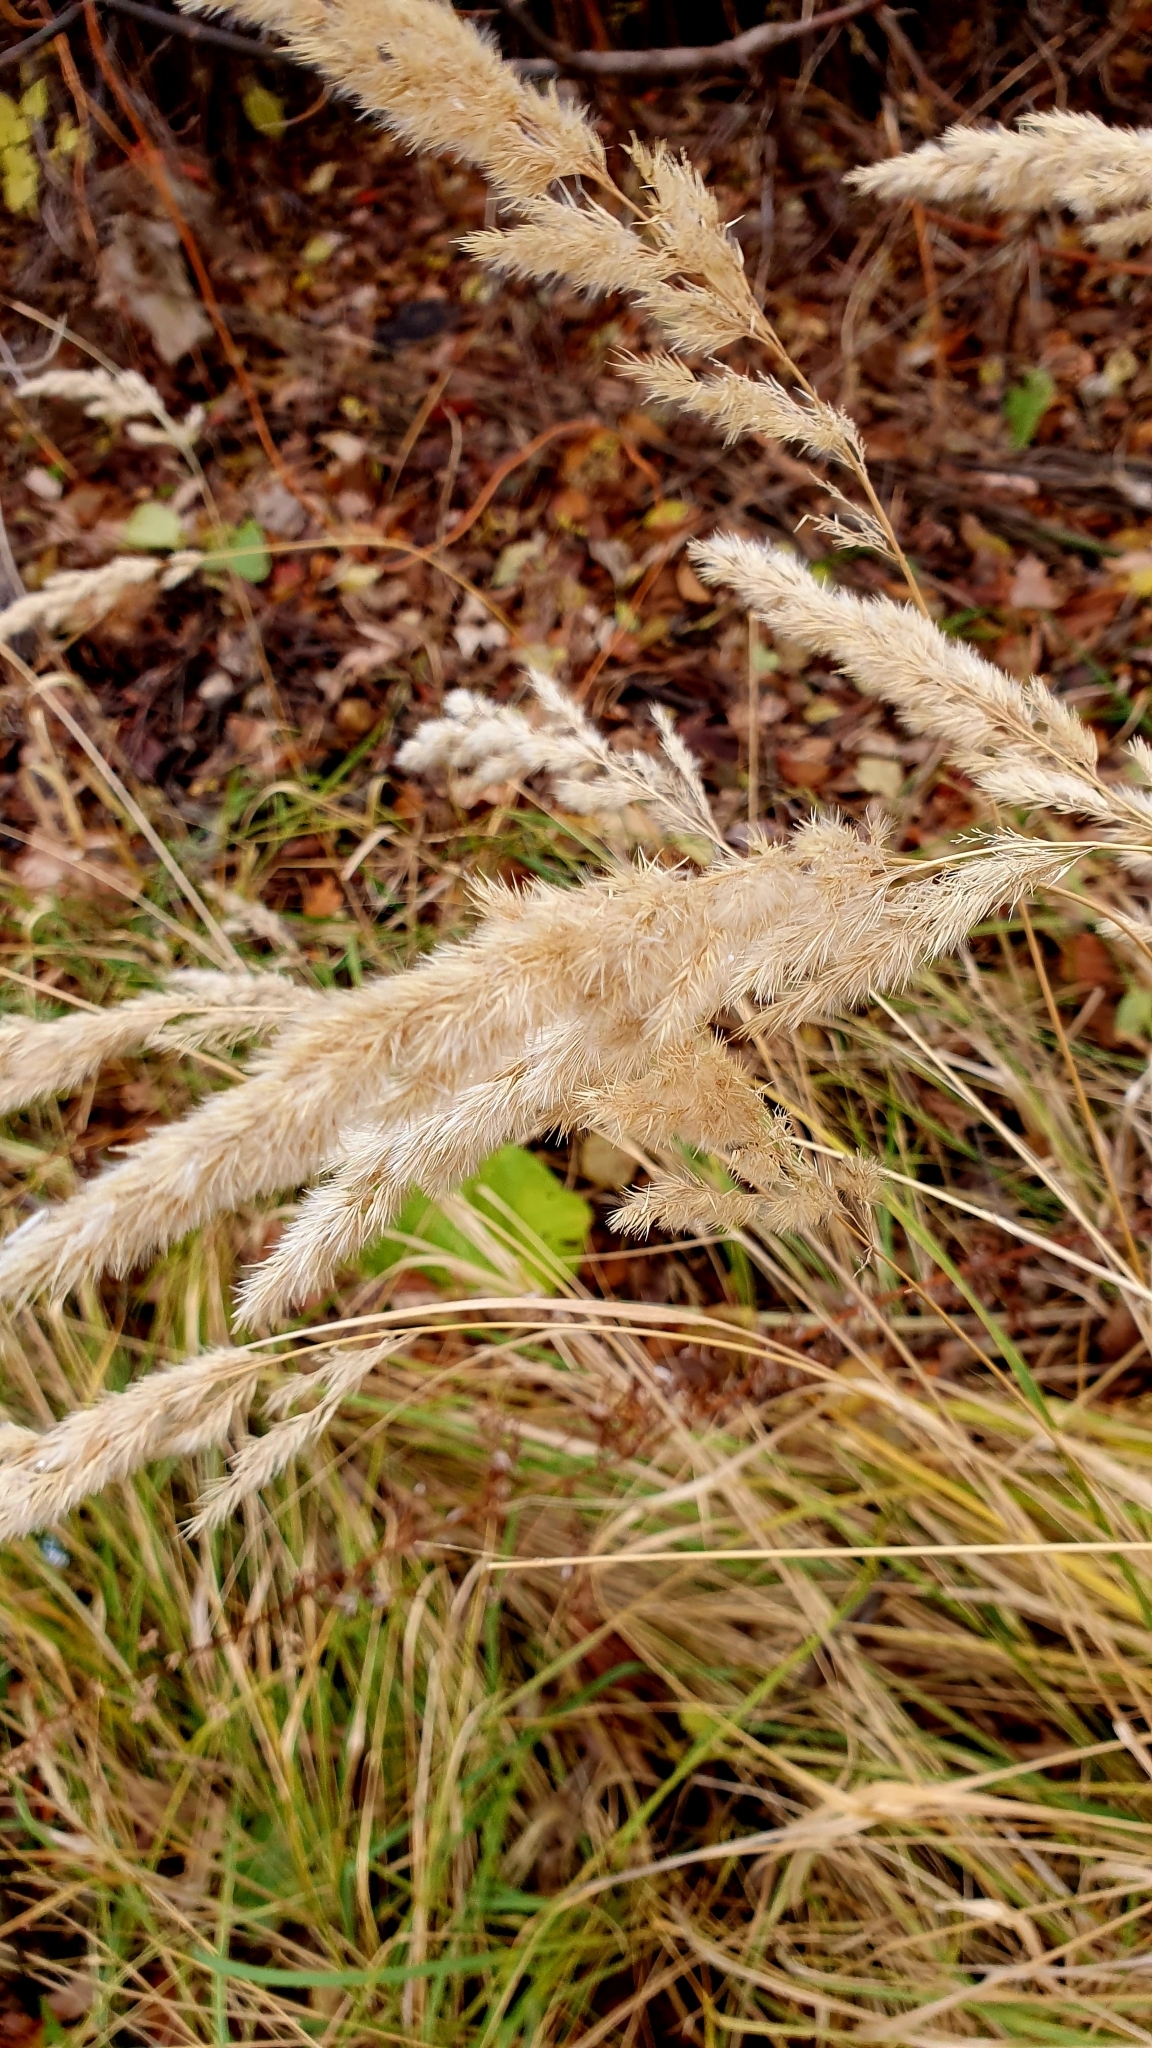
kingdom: Plantae
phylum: Tracheophyta
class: Liliopsida
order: Poales
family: Poaceae
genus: Calamagrostis
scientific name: Calamagrostis epigejos
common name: Wood small-reed
